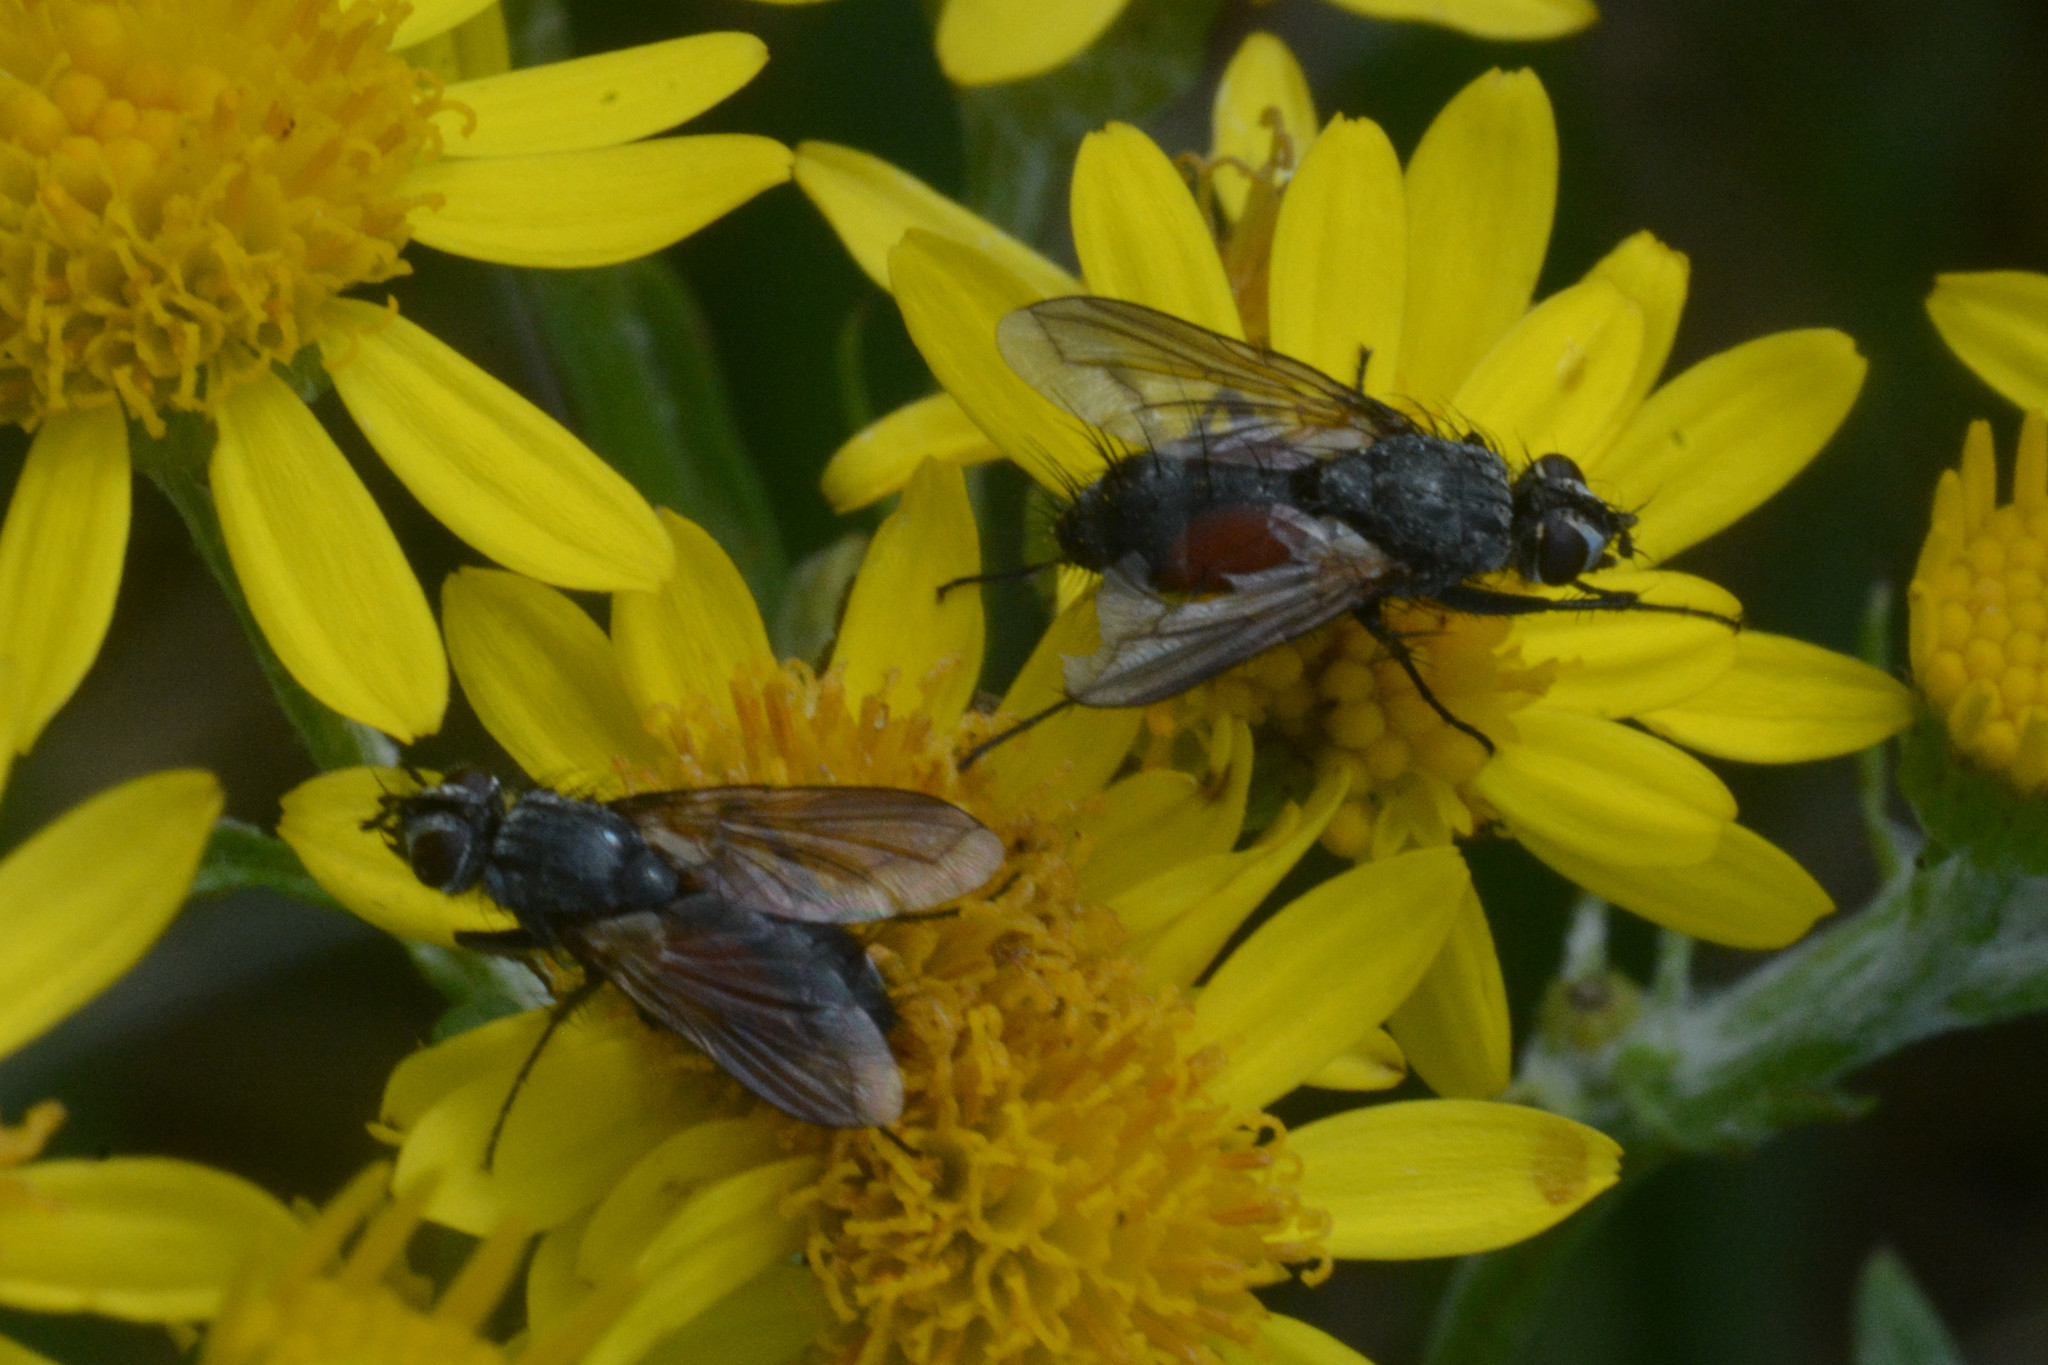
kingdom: Animalia
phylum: Arthropoda
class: Insecta
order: Diptera
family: Tachinidae
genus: Eriothrix
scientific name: Eriothrix rufomaculatus
